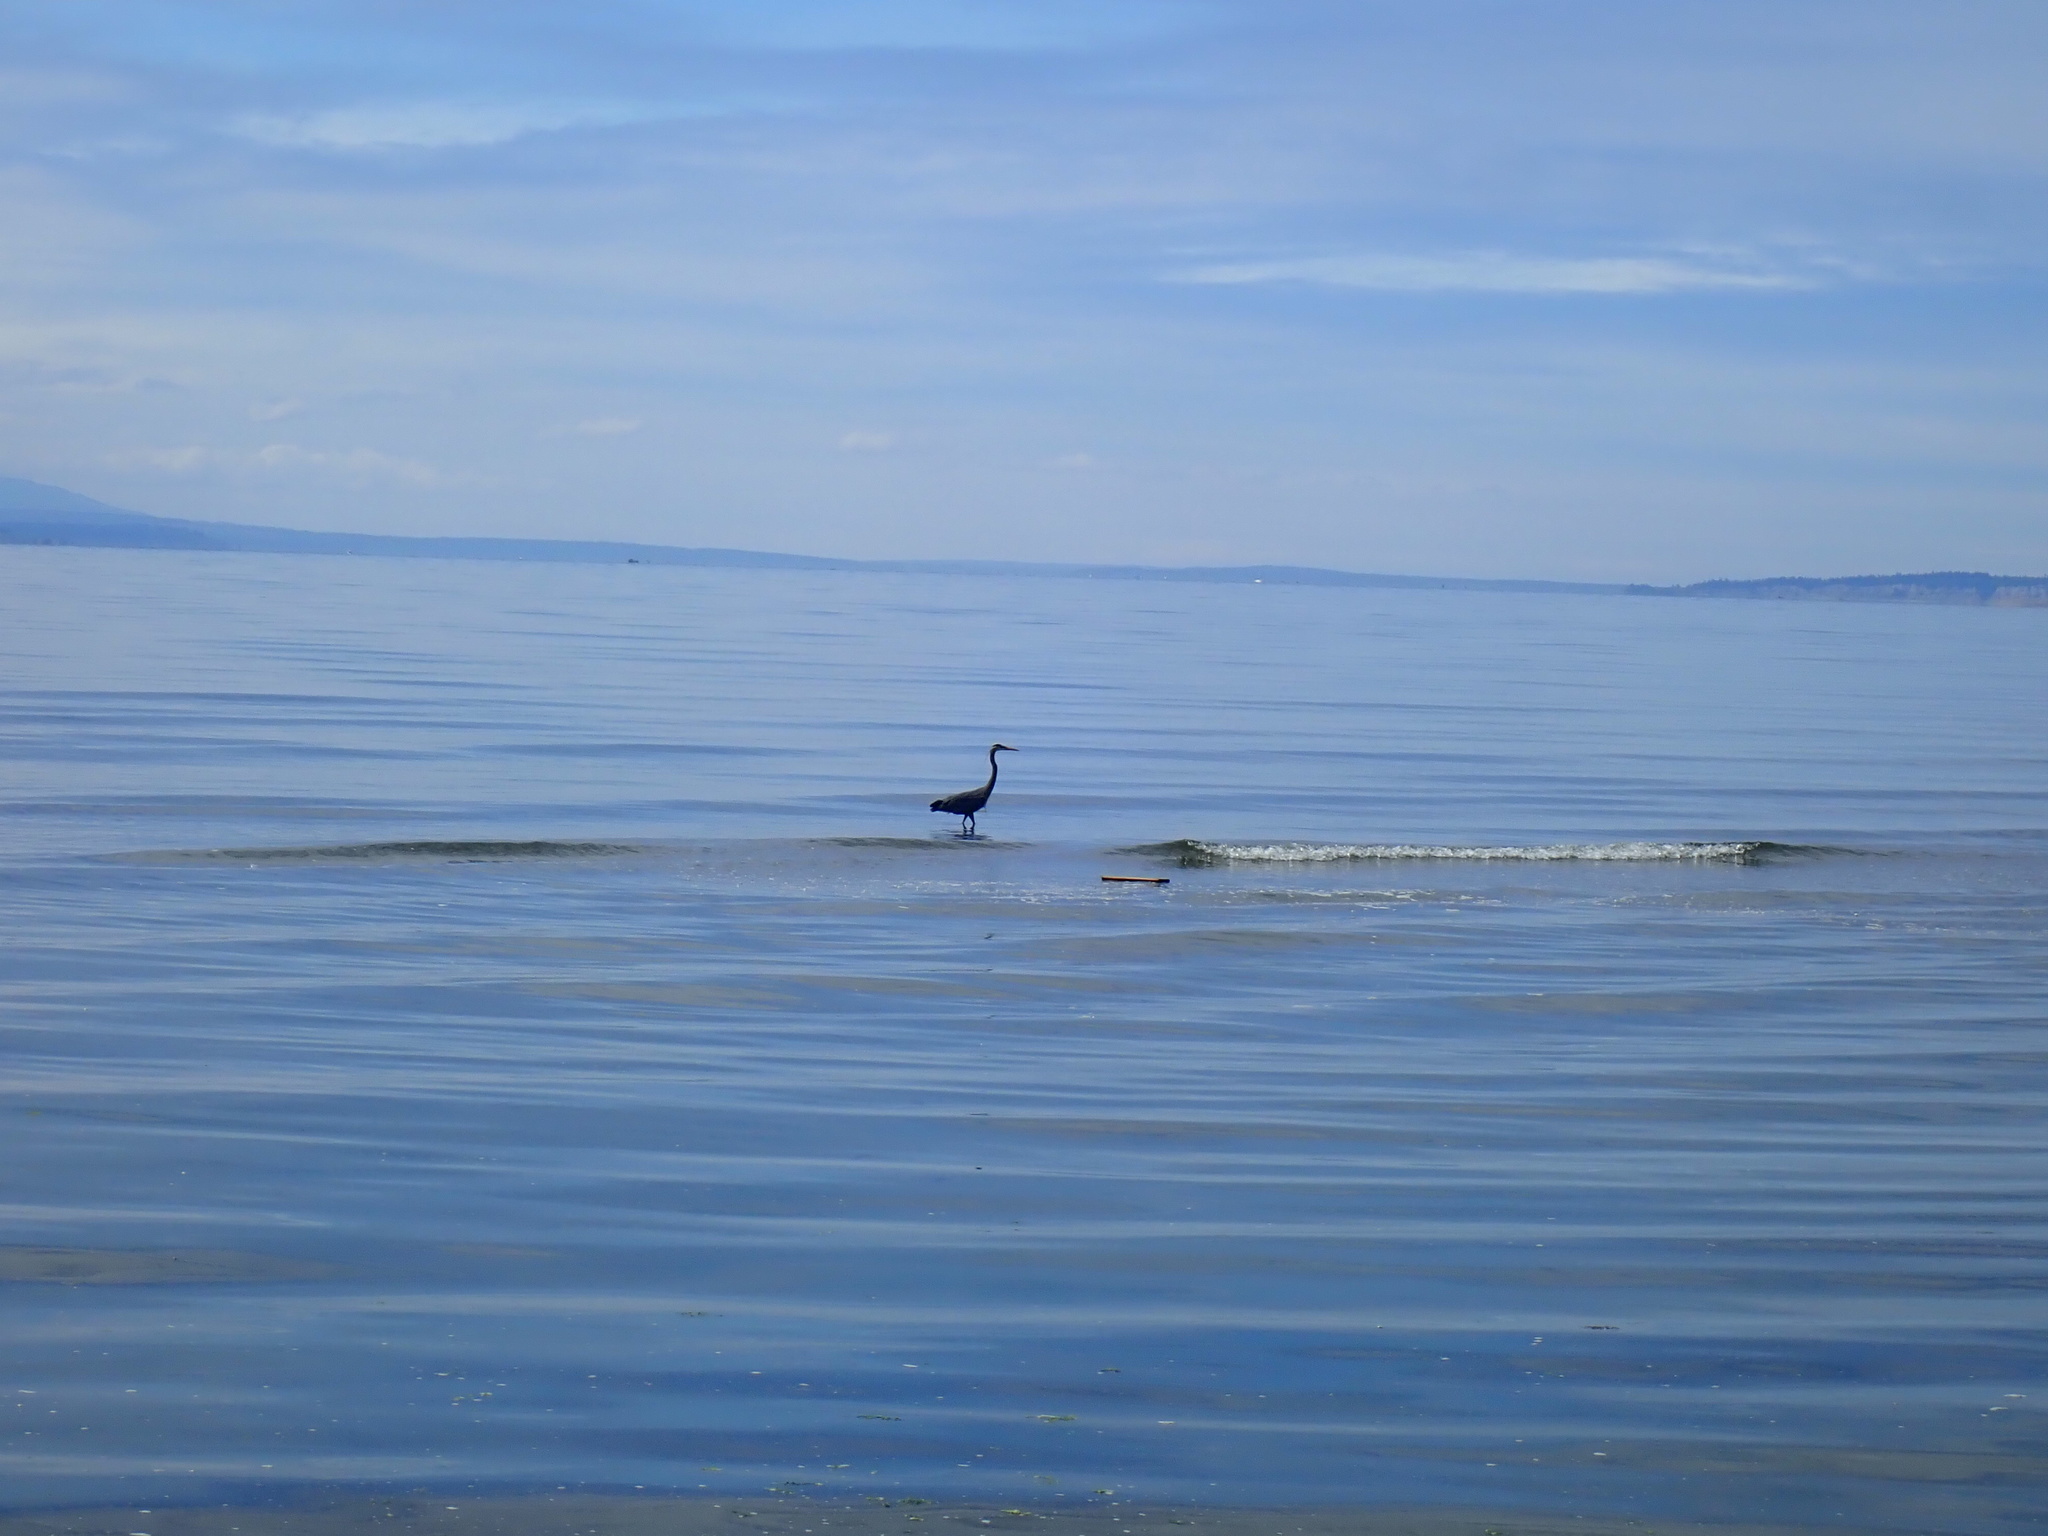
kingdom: Animalia
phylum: Chordata
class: Aves
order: Pelecaniformes
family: Ardeidae
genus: Ardea
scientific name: Ardea herodias
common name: Great blue heron
